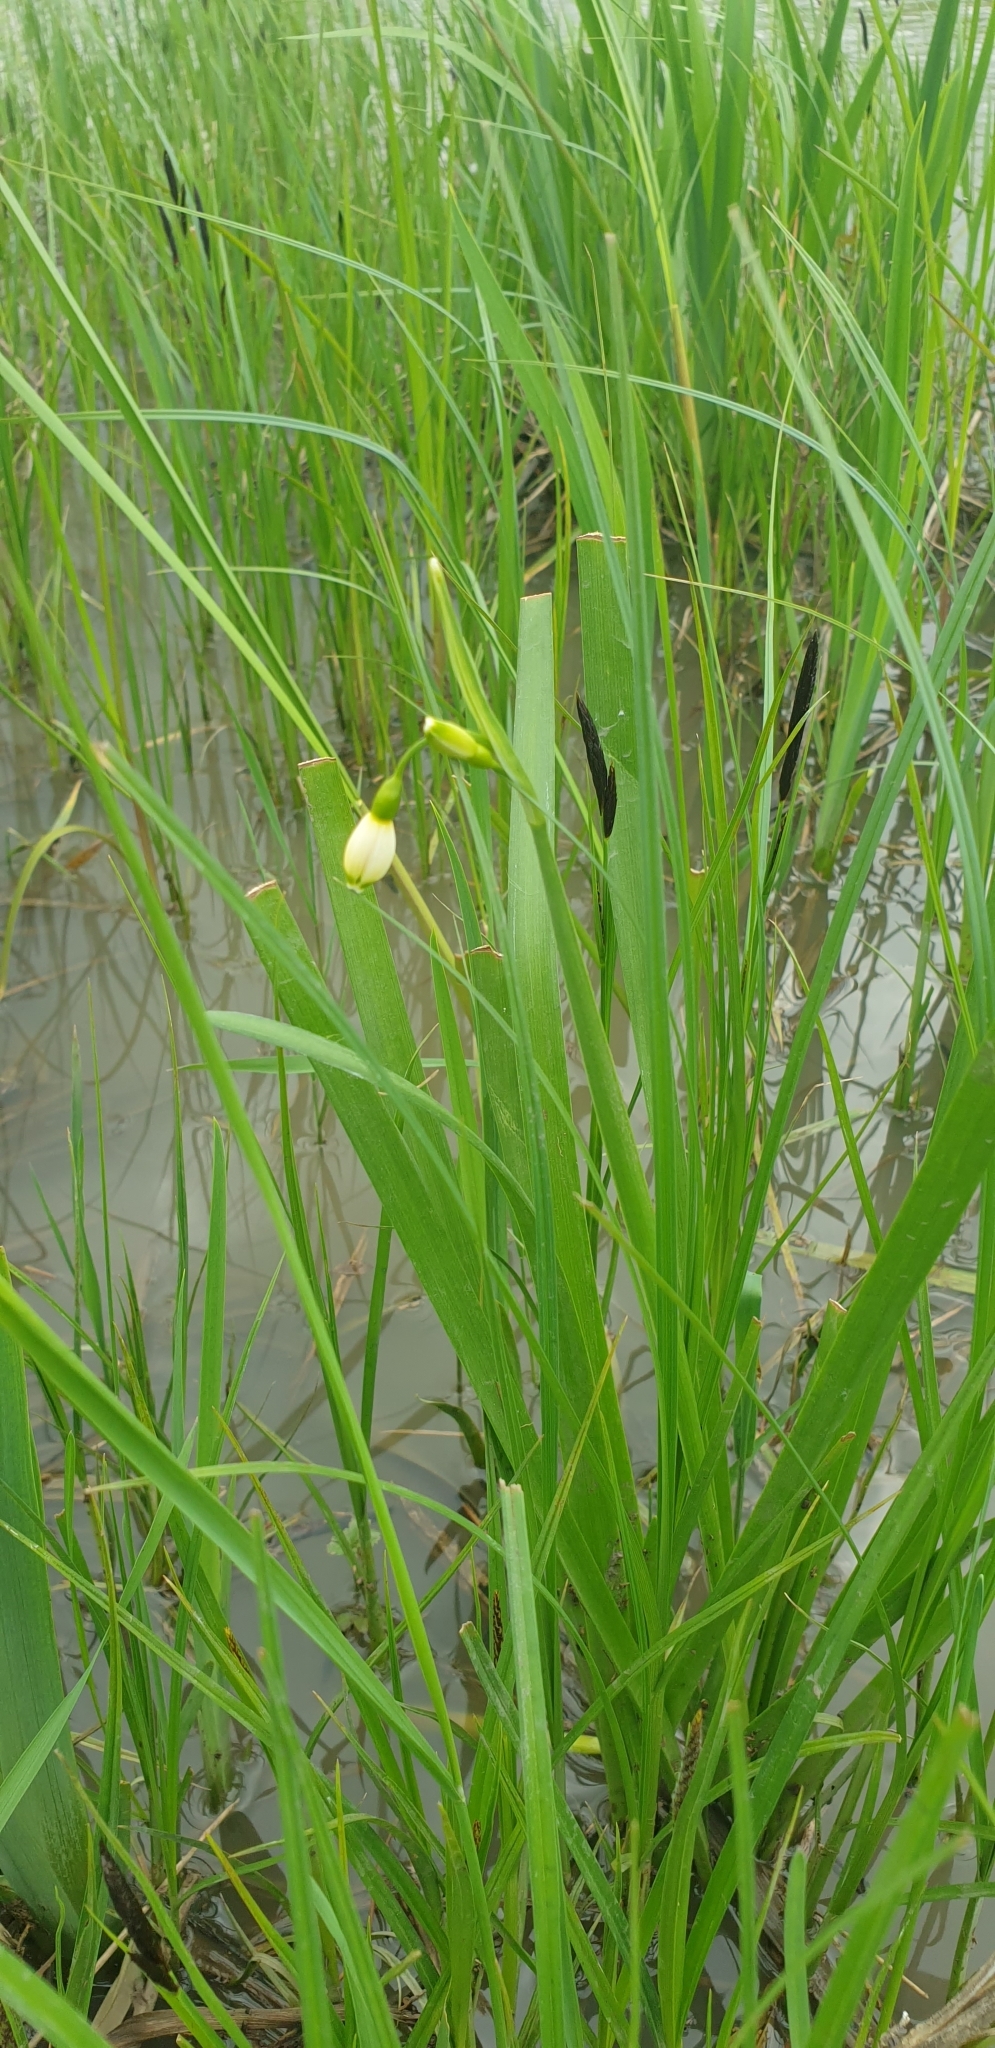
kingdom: Plantae
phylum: Tracheophyta
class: Liliopsida
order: Asparagales
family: Amaryllidaceae
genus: Leucojum
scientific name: Leucojum aestivum
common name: Summer snowflake
